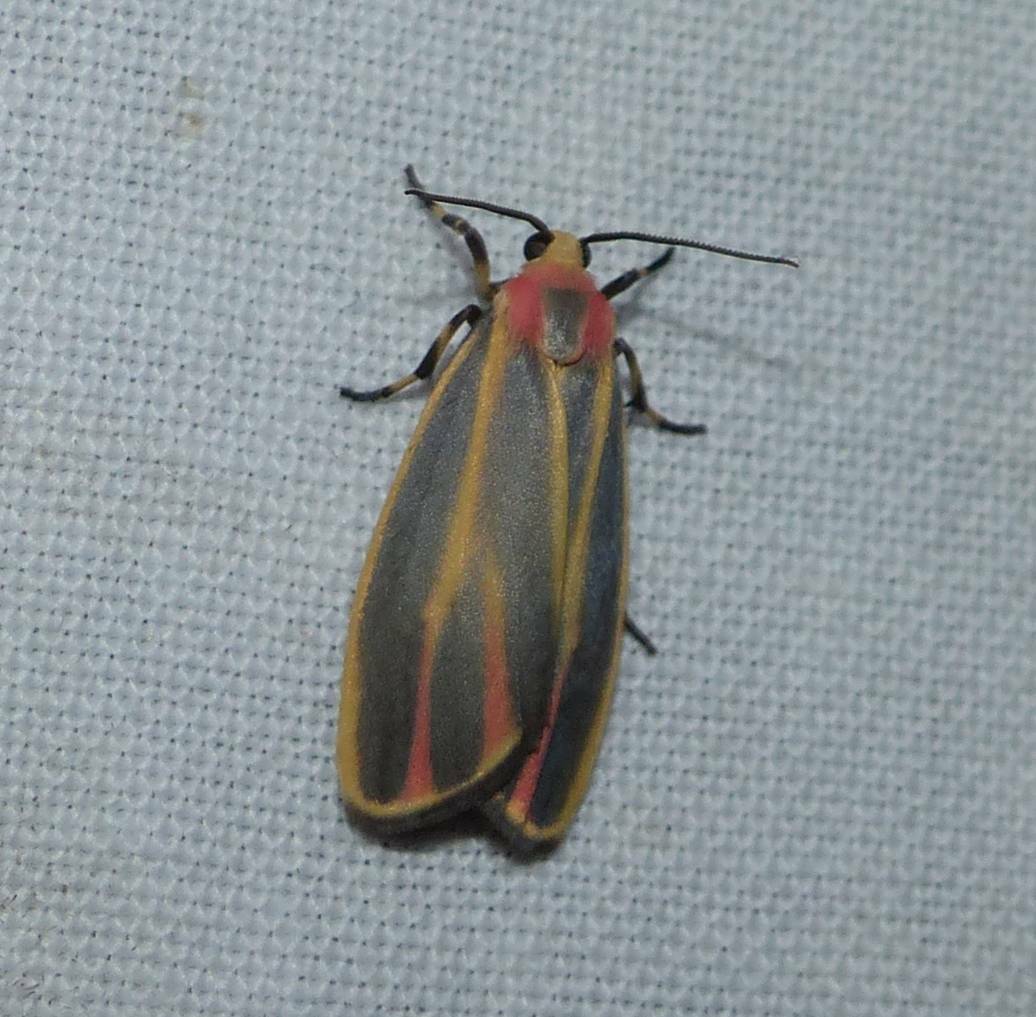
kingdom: Animalia
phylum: Arthropoda
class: Insecta
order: Lepidoptera
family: Erebidae
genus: Hypoprepia
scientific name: Hypoprepia fucosa
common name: Painted lichen moth
